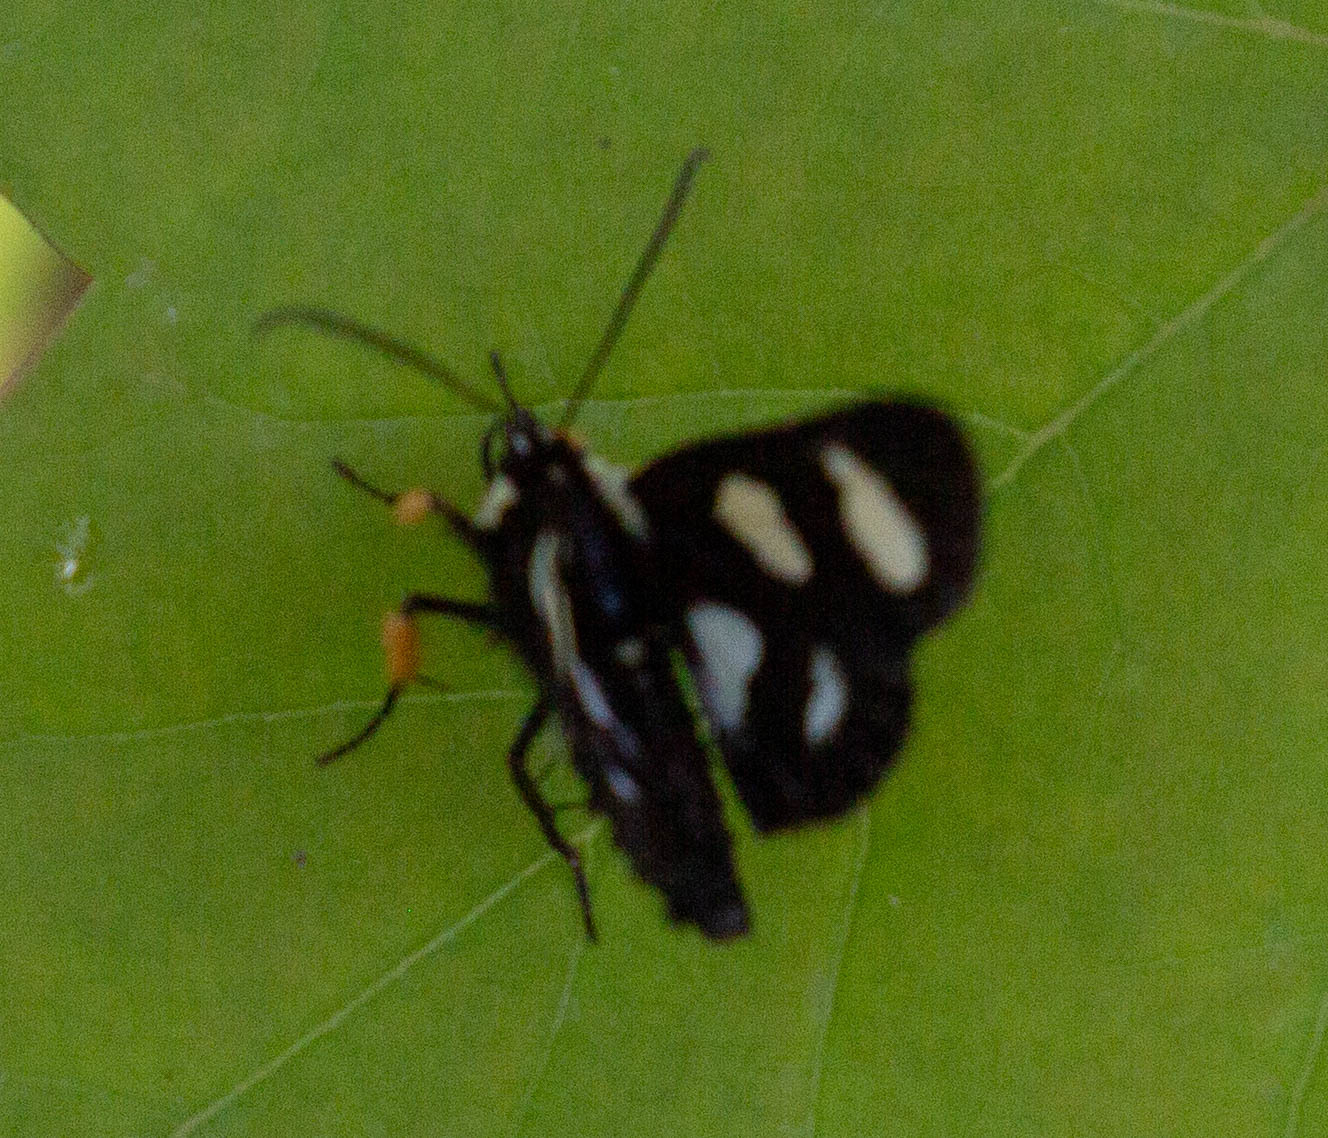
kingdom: Animalia
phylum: Arthropoda
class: Insecta
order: Lepidoptera
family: Noctuidae
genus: Alypia
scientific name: Alypia octomaculata
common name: Eight-spotted forester
